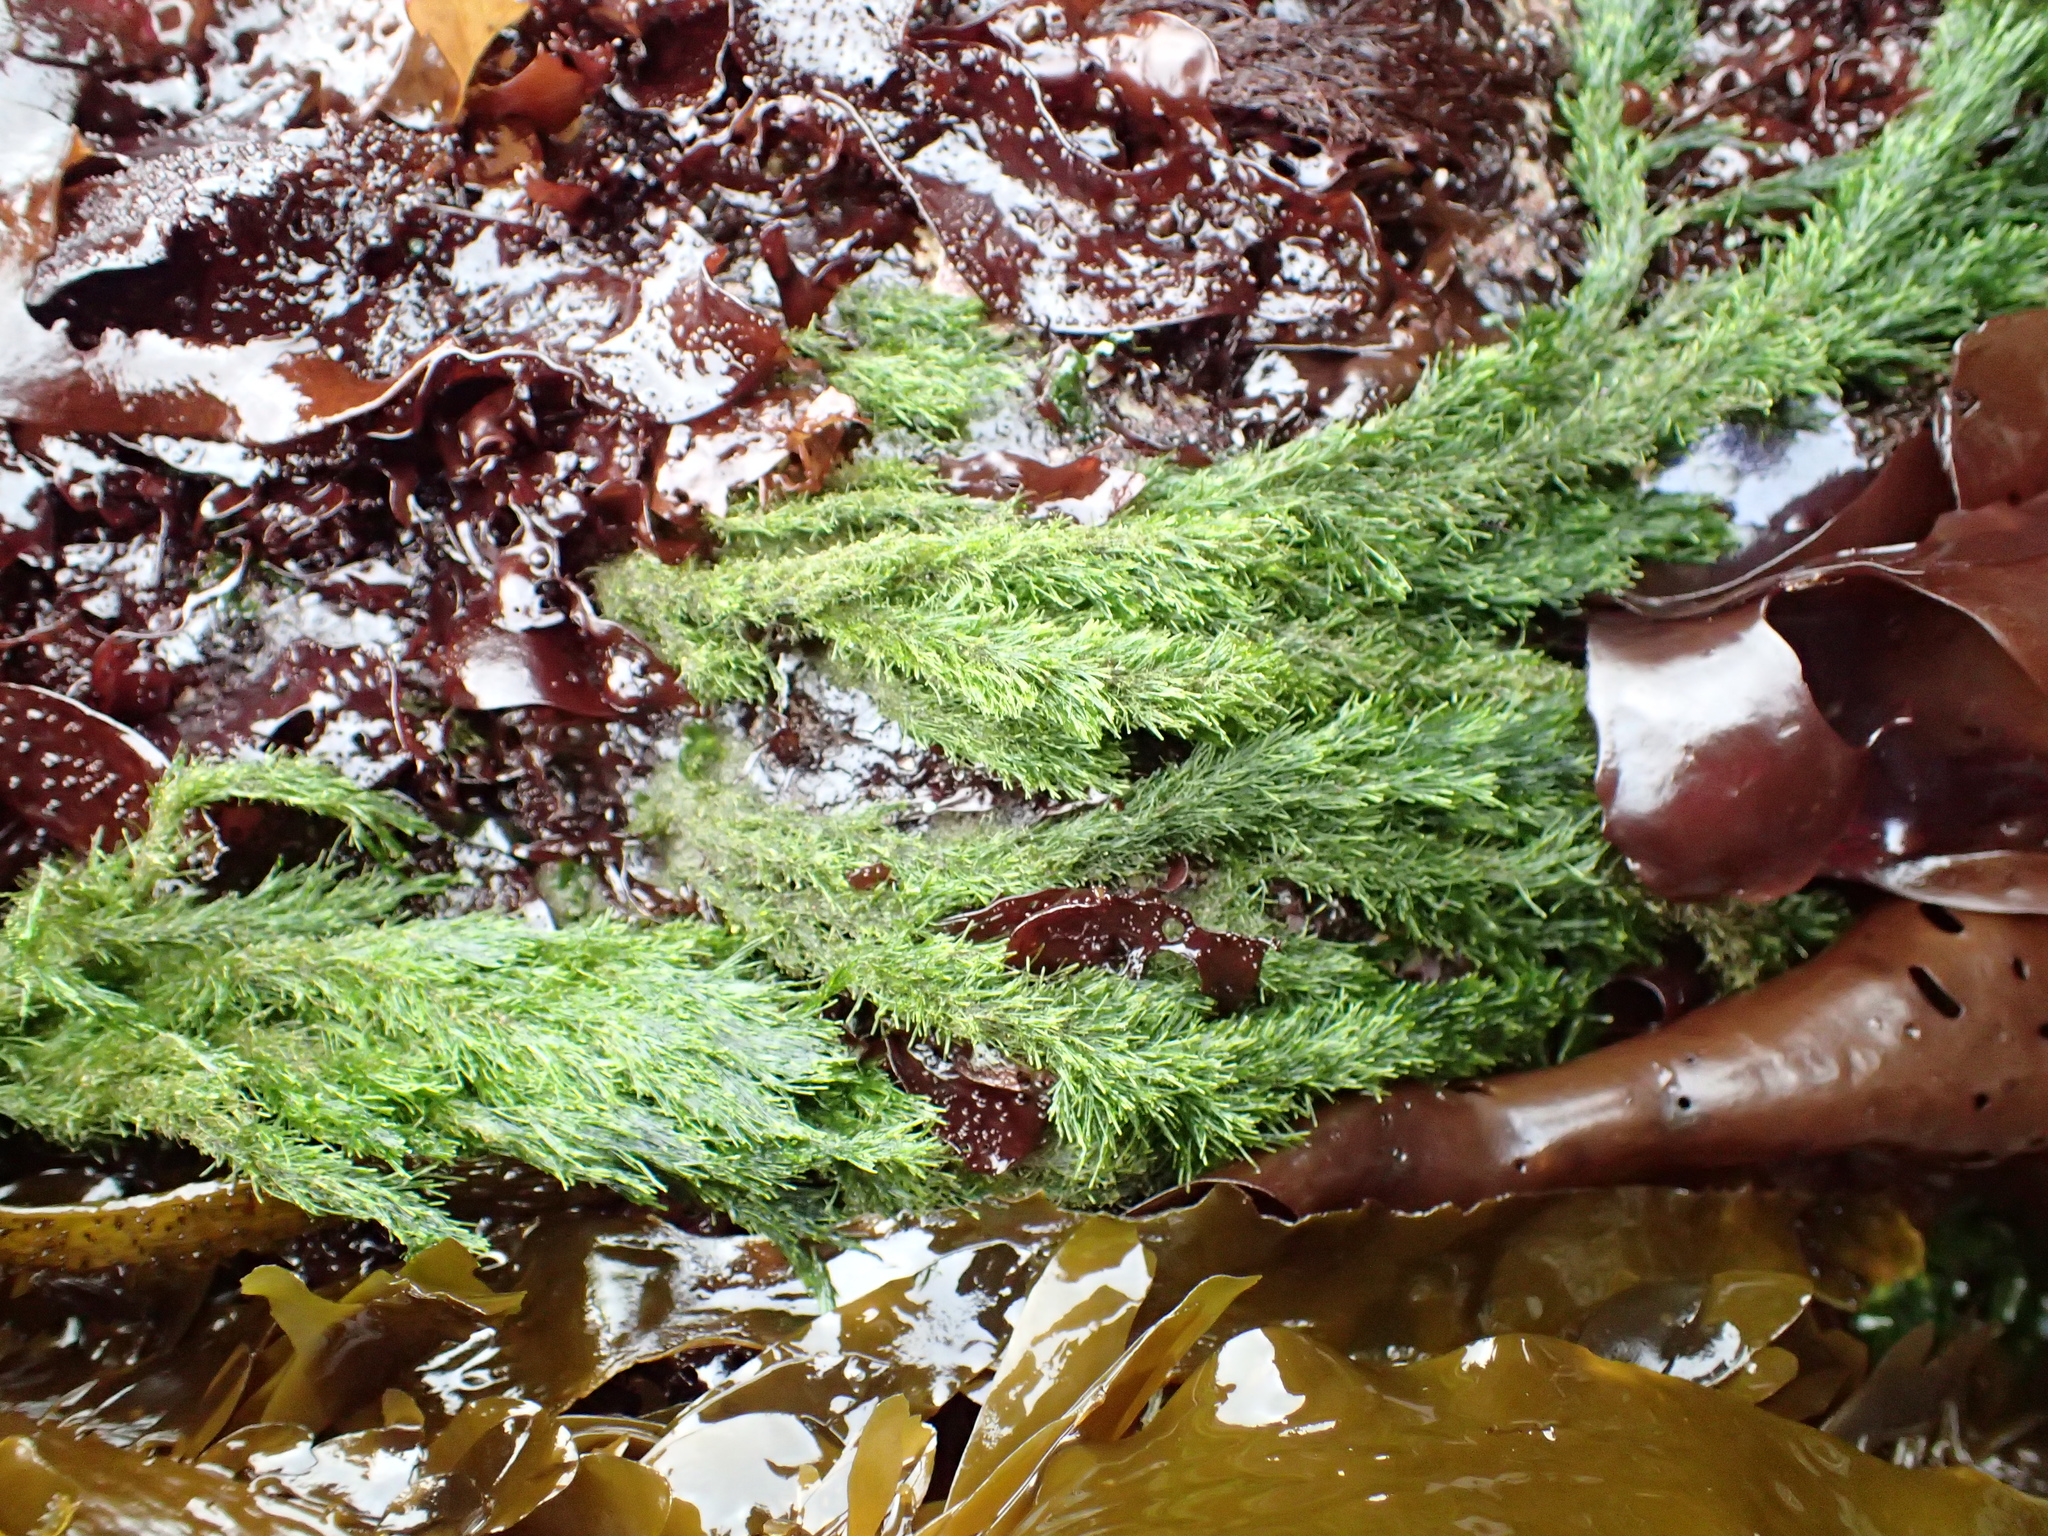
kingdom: Plantae
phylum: Chlorophyta
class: Ulvophyceae
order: Ulotrichales
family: Ulotrichaceae
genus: Acrosiphonia
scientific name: Acrosiphonia
